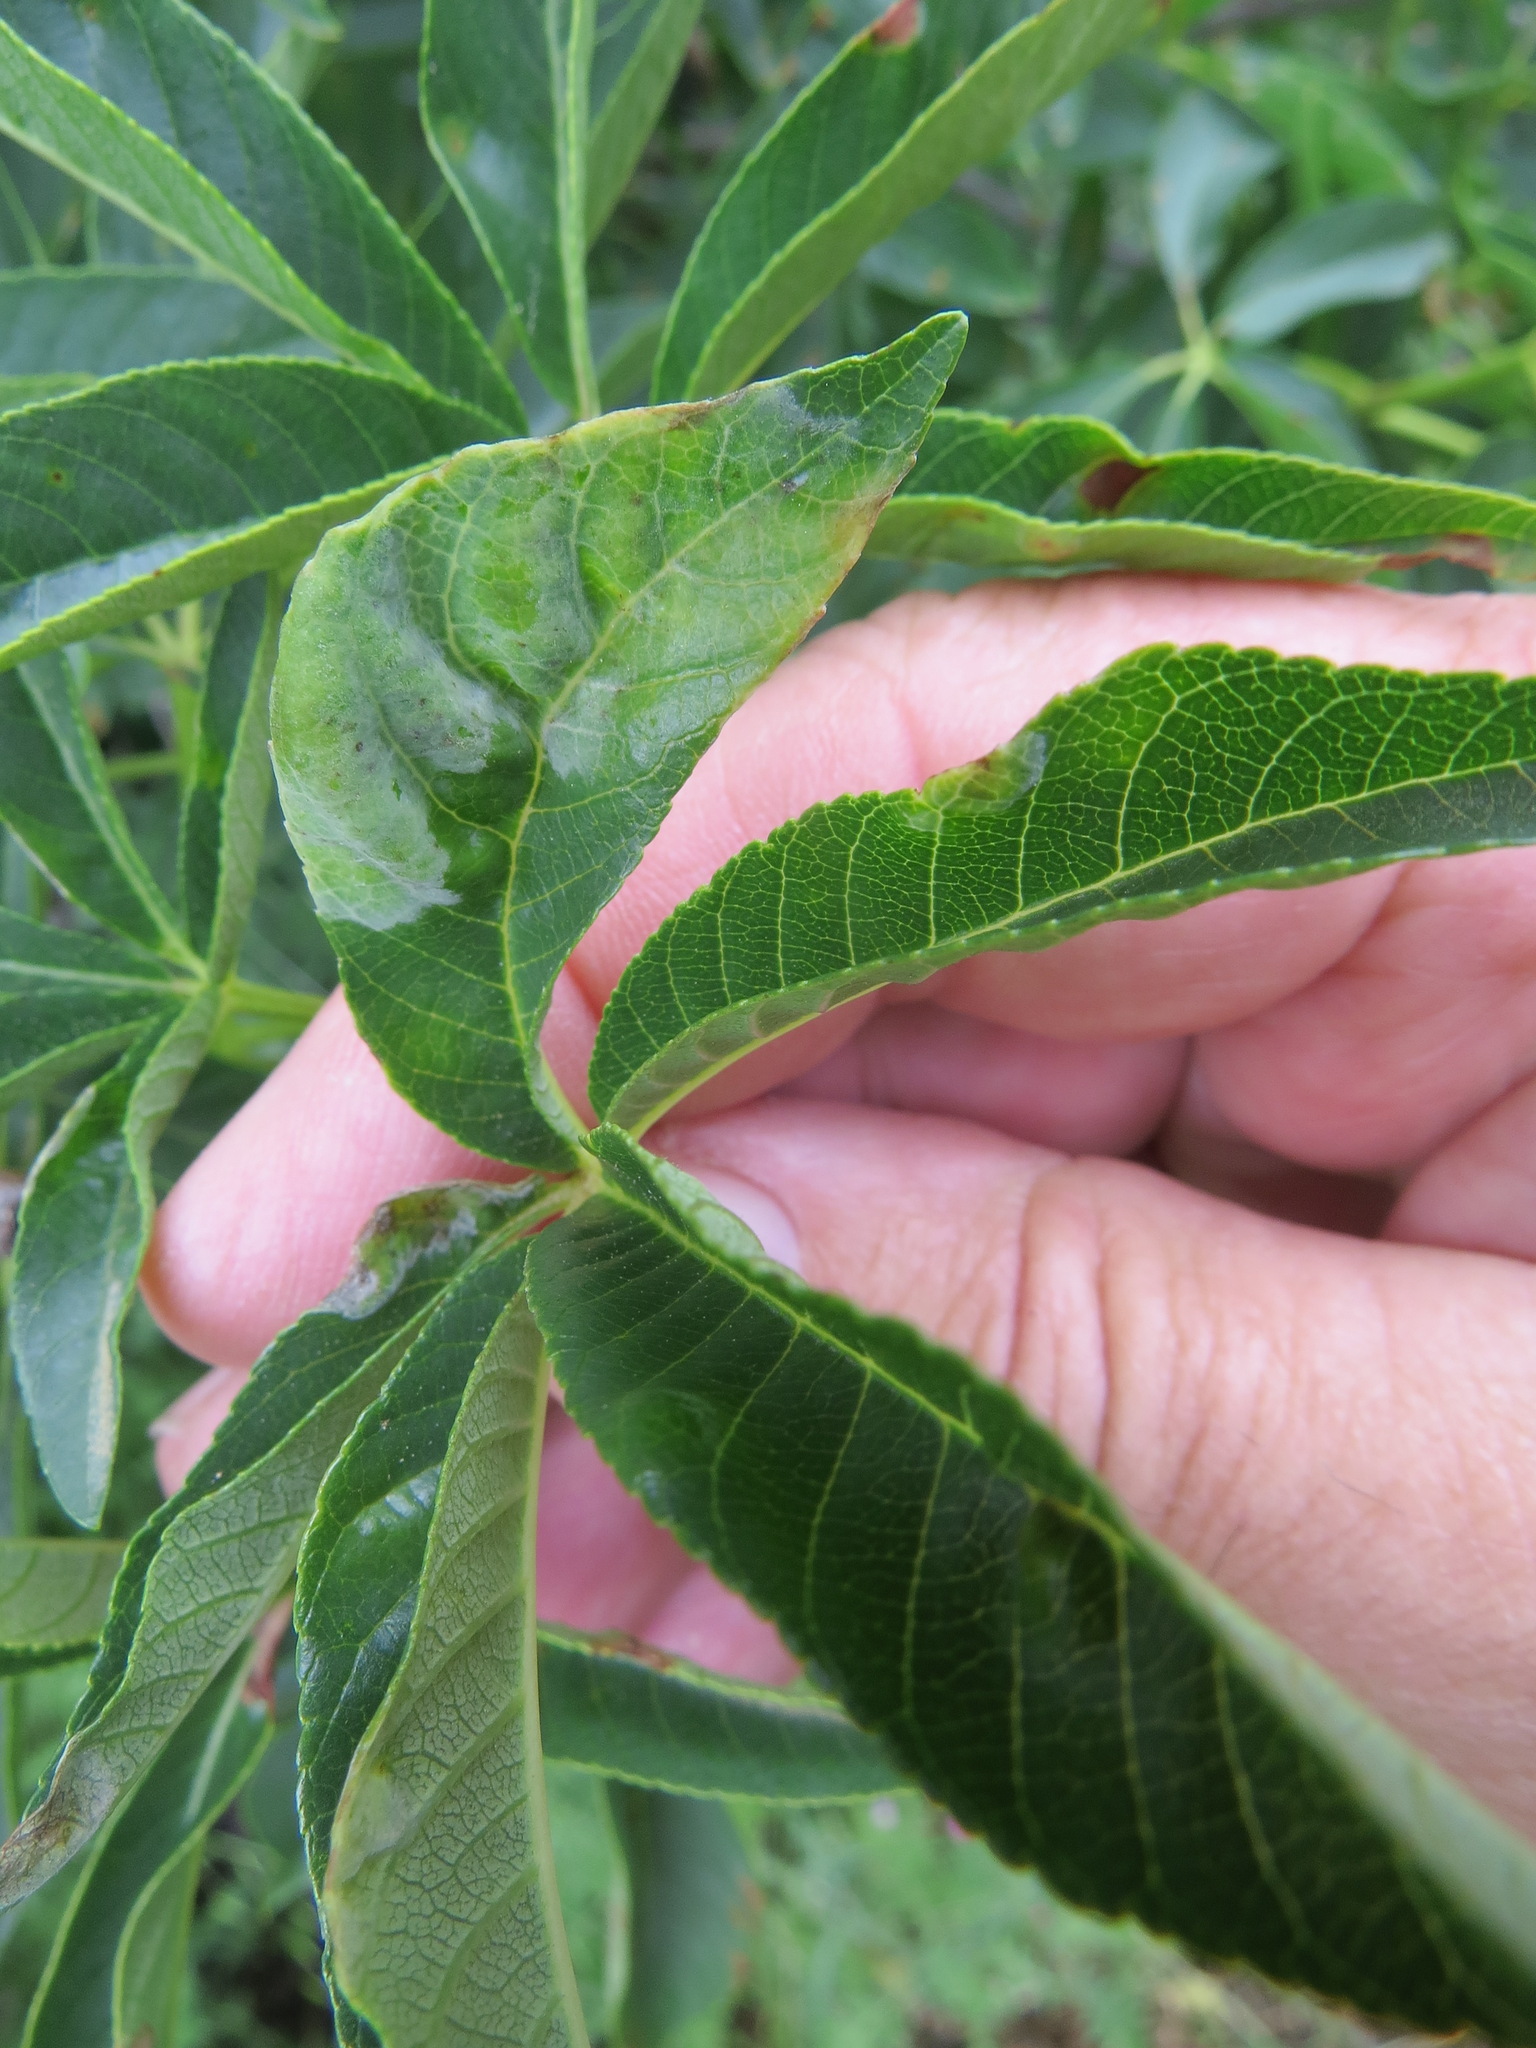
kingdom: Fungi
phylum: Ascomycota
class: Taphrinomycetes
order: Taphrinales
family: Taphrinaceae
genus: Taphrina
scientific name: Taphrina aesculi
